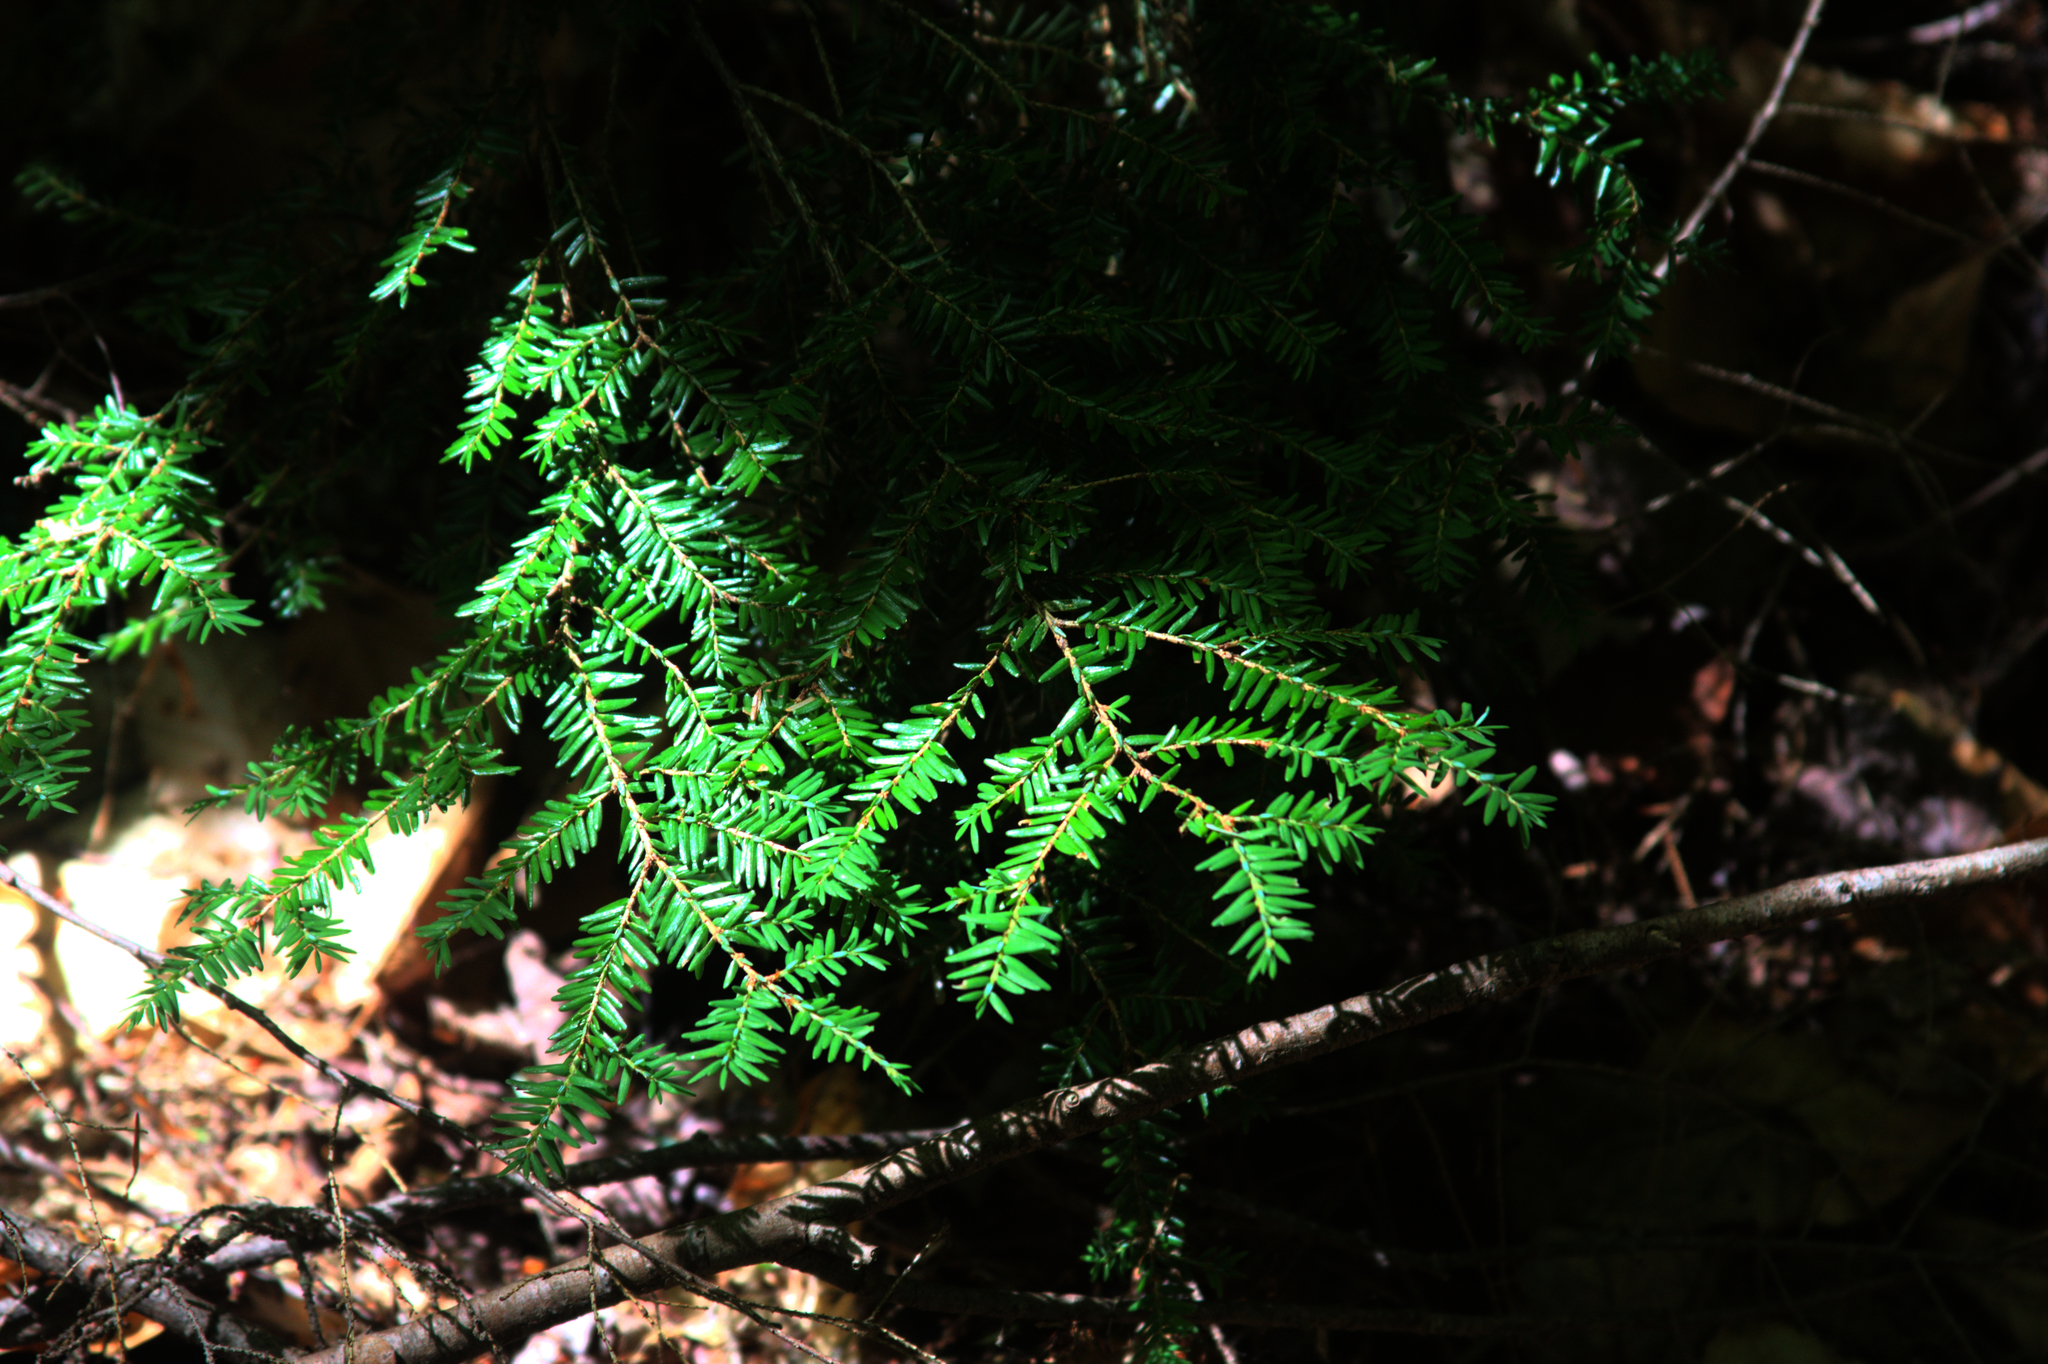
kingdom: Plantae
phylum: Tracheophyta
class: Pinopsida
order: Pinales
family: Pinaceae
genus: Tsuga
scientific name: Tsuga canadensis
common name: Eastern hemlock
